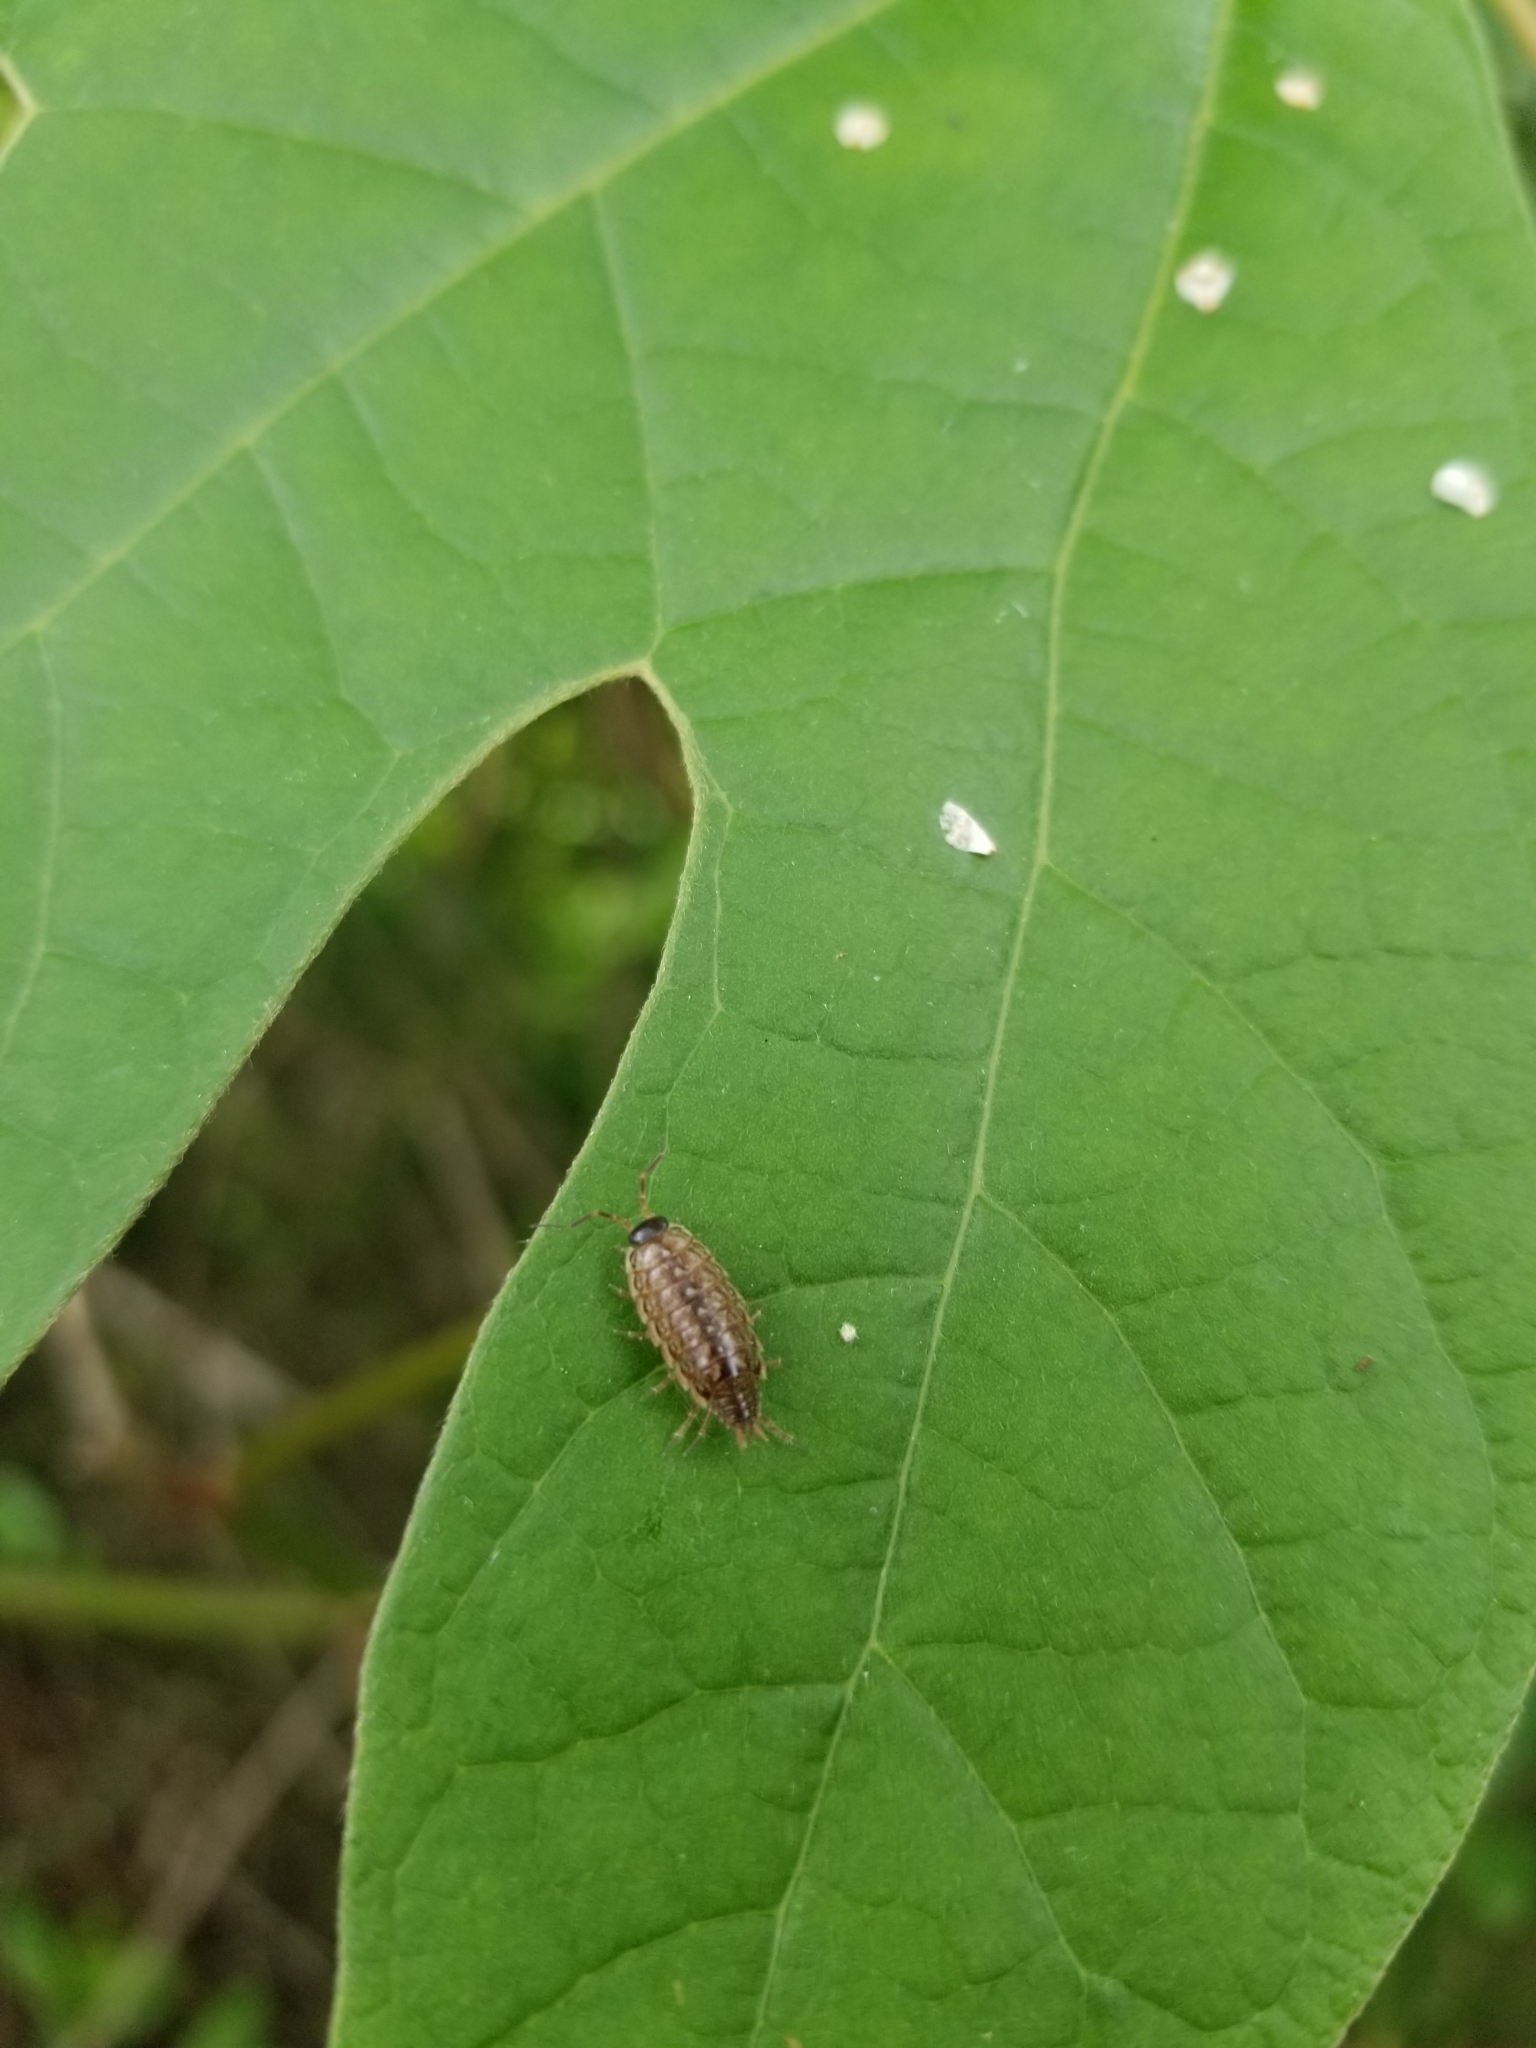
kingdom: Animalia
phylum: Arthropoda
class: Malacostraca
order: Isopoda
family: Philosciidae
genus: Philoscia
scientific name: Philoscia muscorum
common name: Common striped woodlouse
